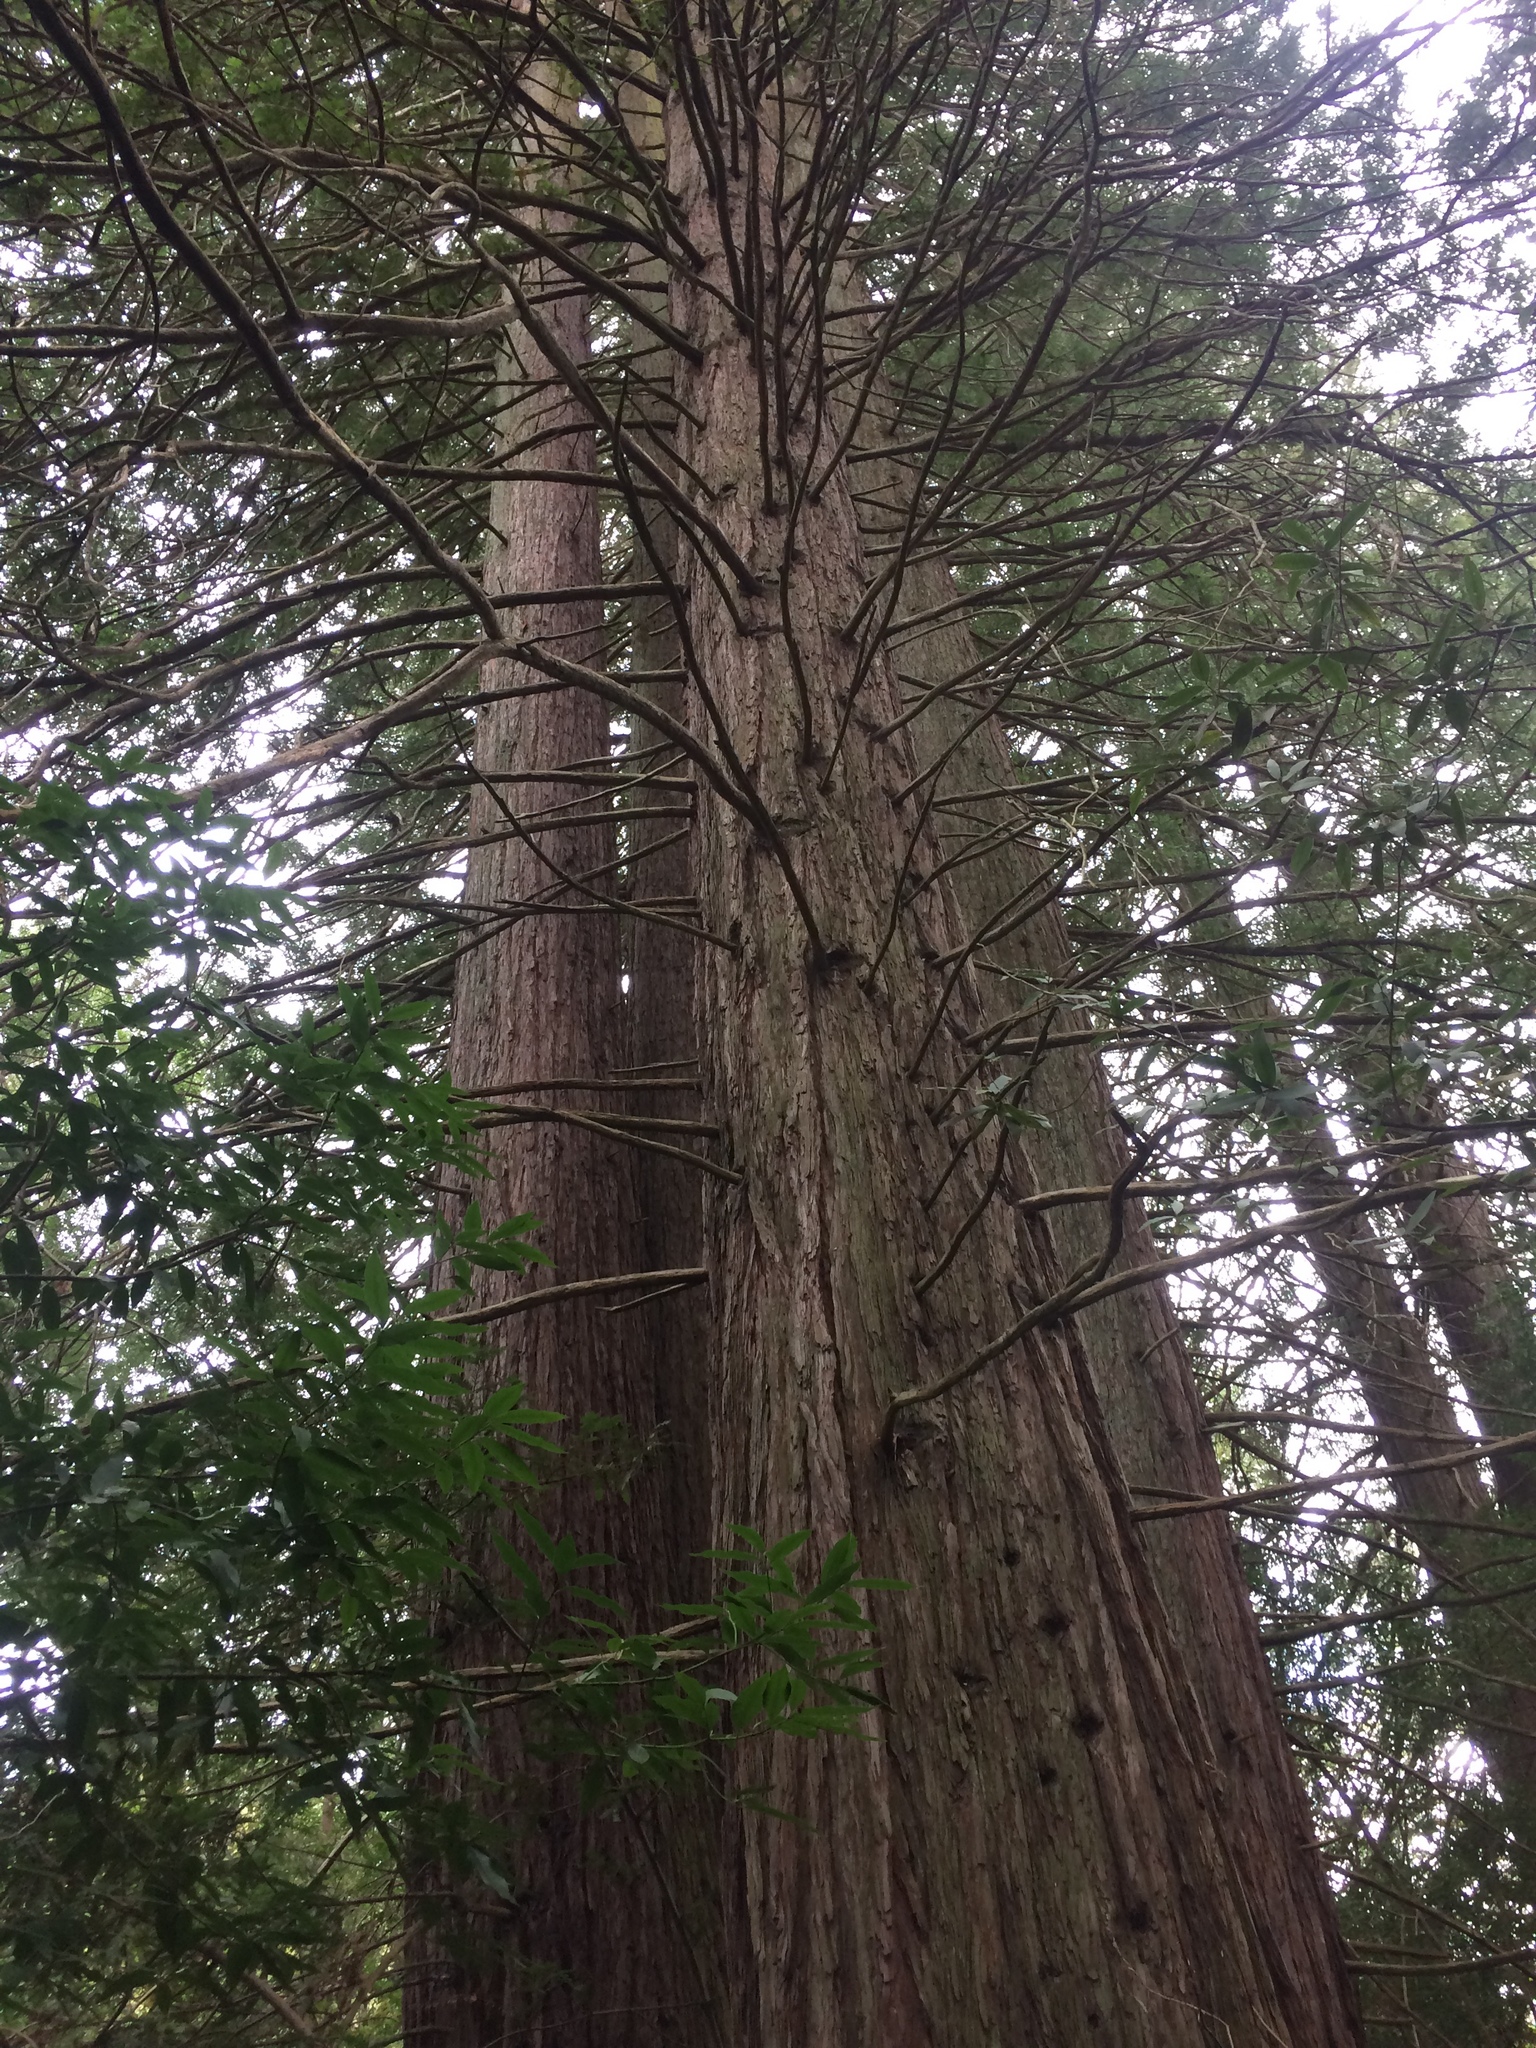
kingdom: Plantae
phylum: Tracheophyta
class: Pinopsida
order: Pinales
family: Cupressaceae
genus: Sequoia
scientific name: Sequoia sempervirens
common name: Coast redwood
